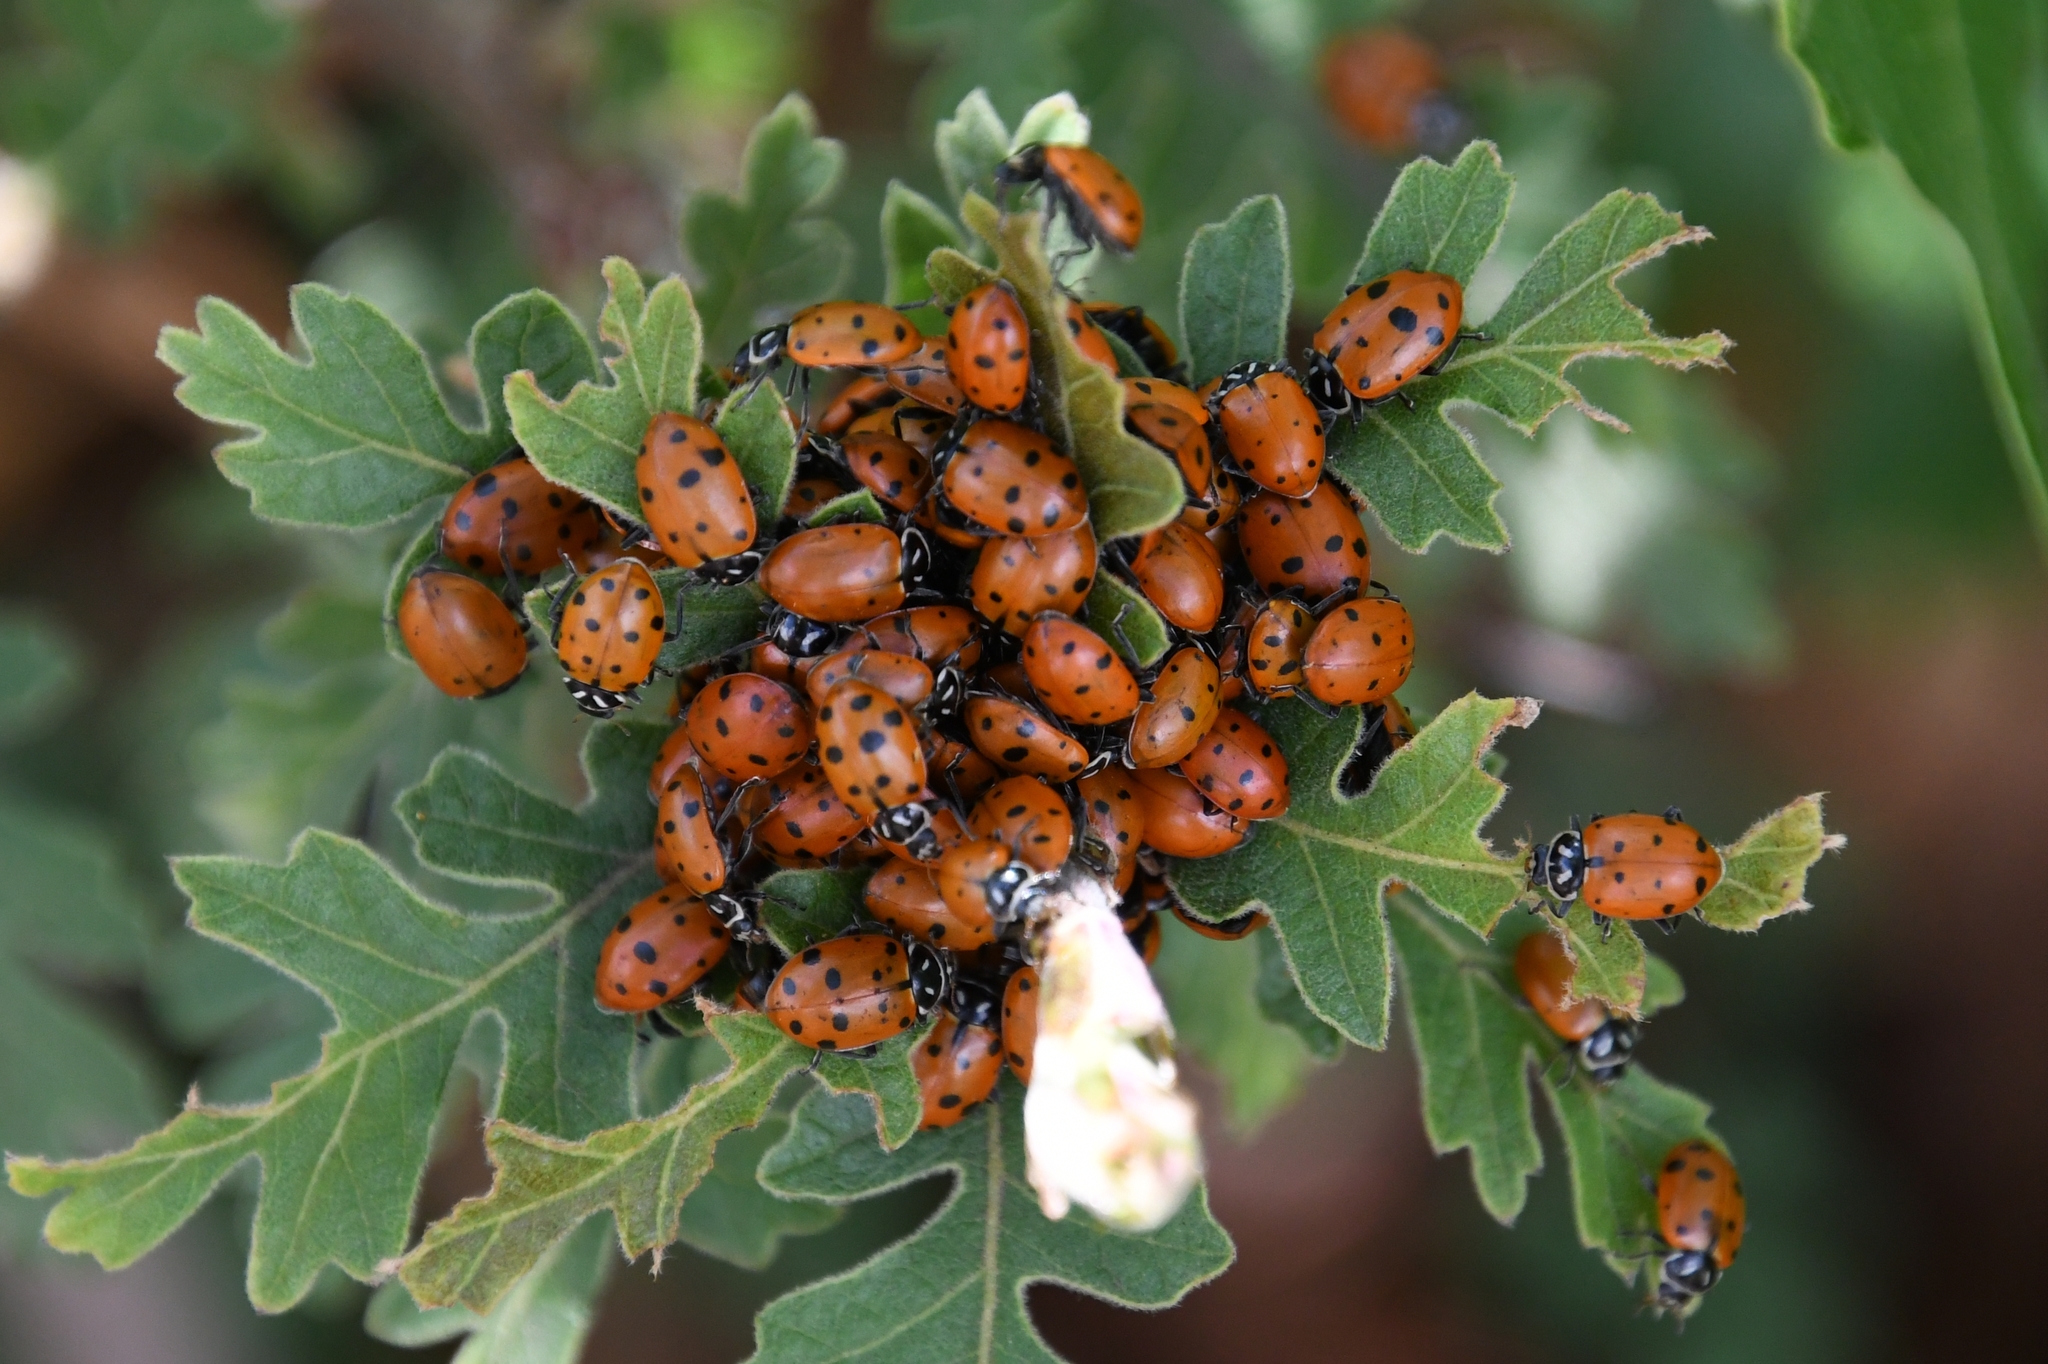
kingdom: Animalia
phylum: Arthropoda
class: Insecta
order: Coleoptera
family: Coccinellidae
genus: Hippodamia
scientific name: Hippodamia convergens
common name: Convergent lady beetle
